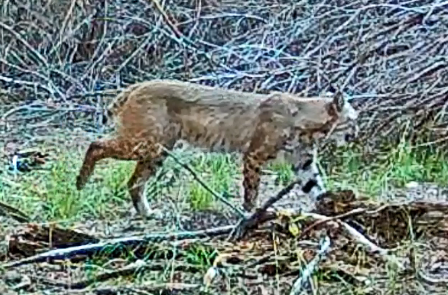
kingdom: Animalia
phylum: Chordata
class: Mammalia
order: Carnivora
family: Felidae
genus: Lynx
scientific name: Lynx rufus
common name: Bobcat
